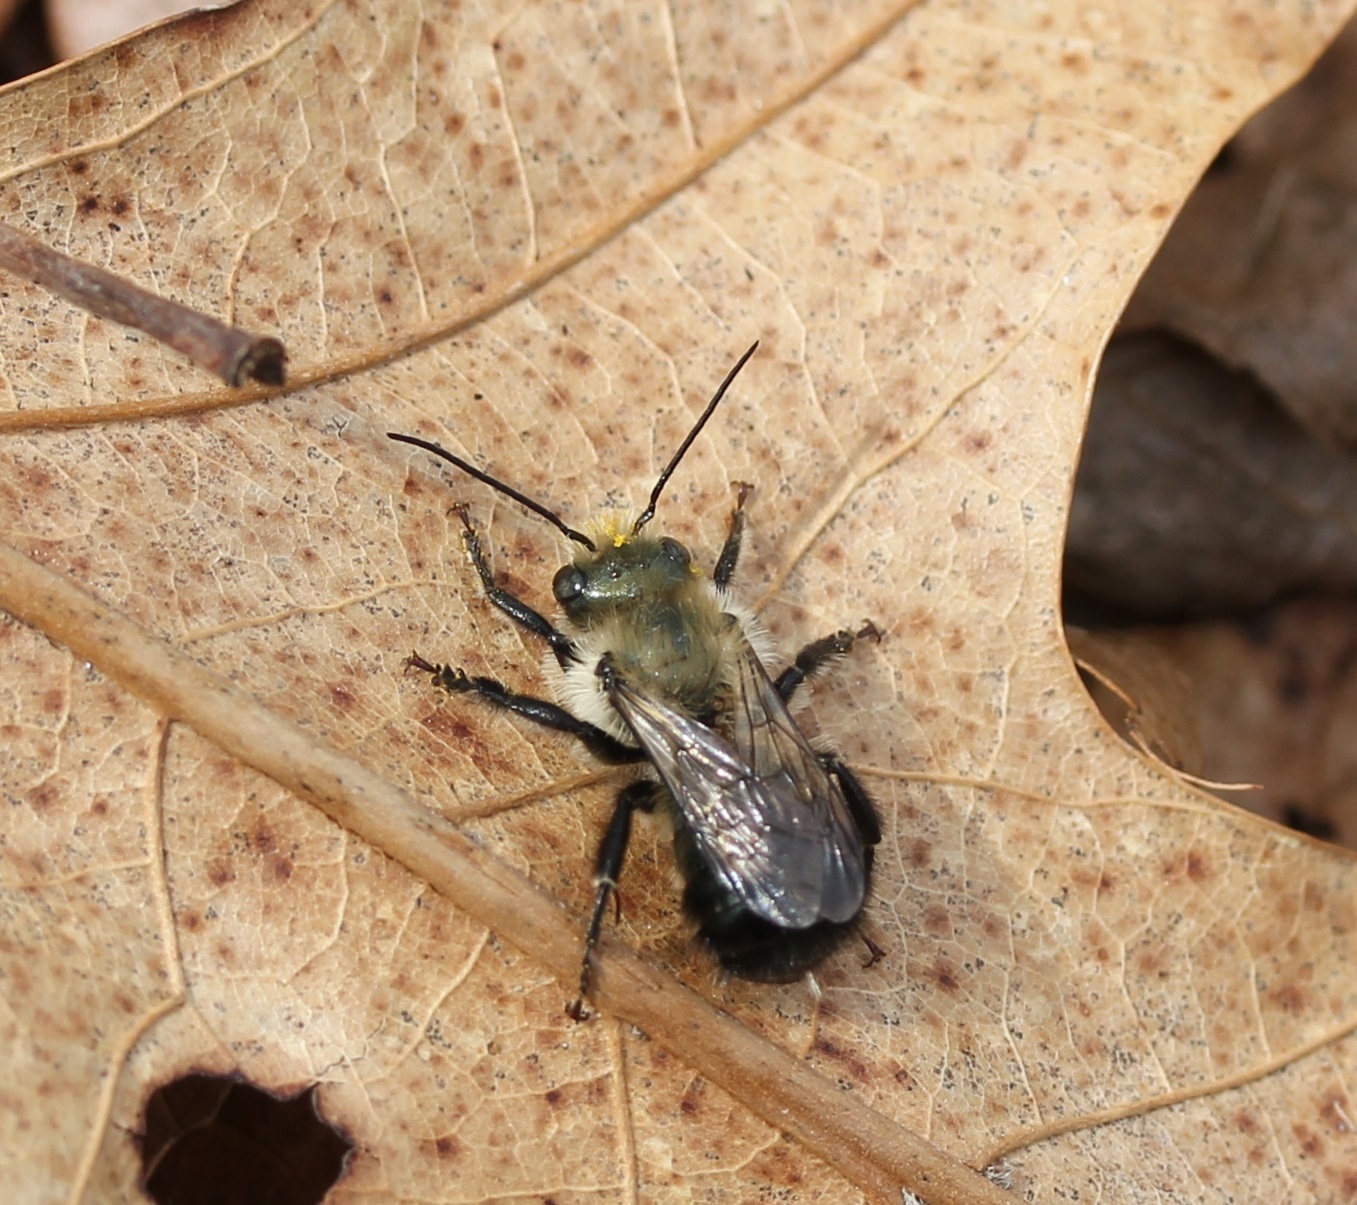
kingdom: Animalia
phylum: Arthropoda
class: Insecta
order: Hymenoptera
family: Megachilidae
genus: Osmia
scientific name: Osmia bucephala
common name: Bufflehead mason bee
